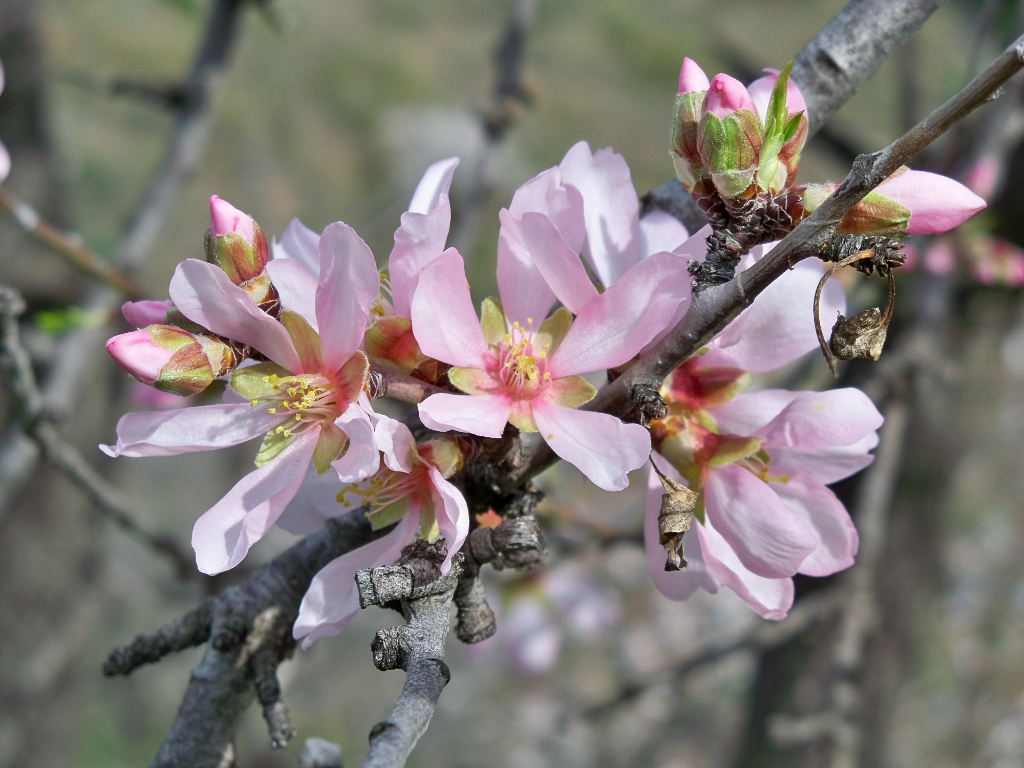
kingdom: Plantae
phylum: Tracheophyta
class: Magnoliopsida
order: Rosales
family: Rosaceae
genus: Prunus
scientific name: Prunus amygdalus
